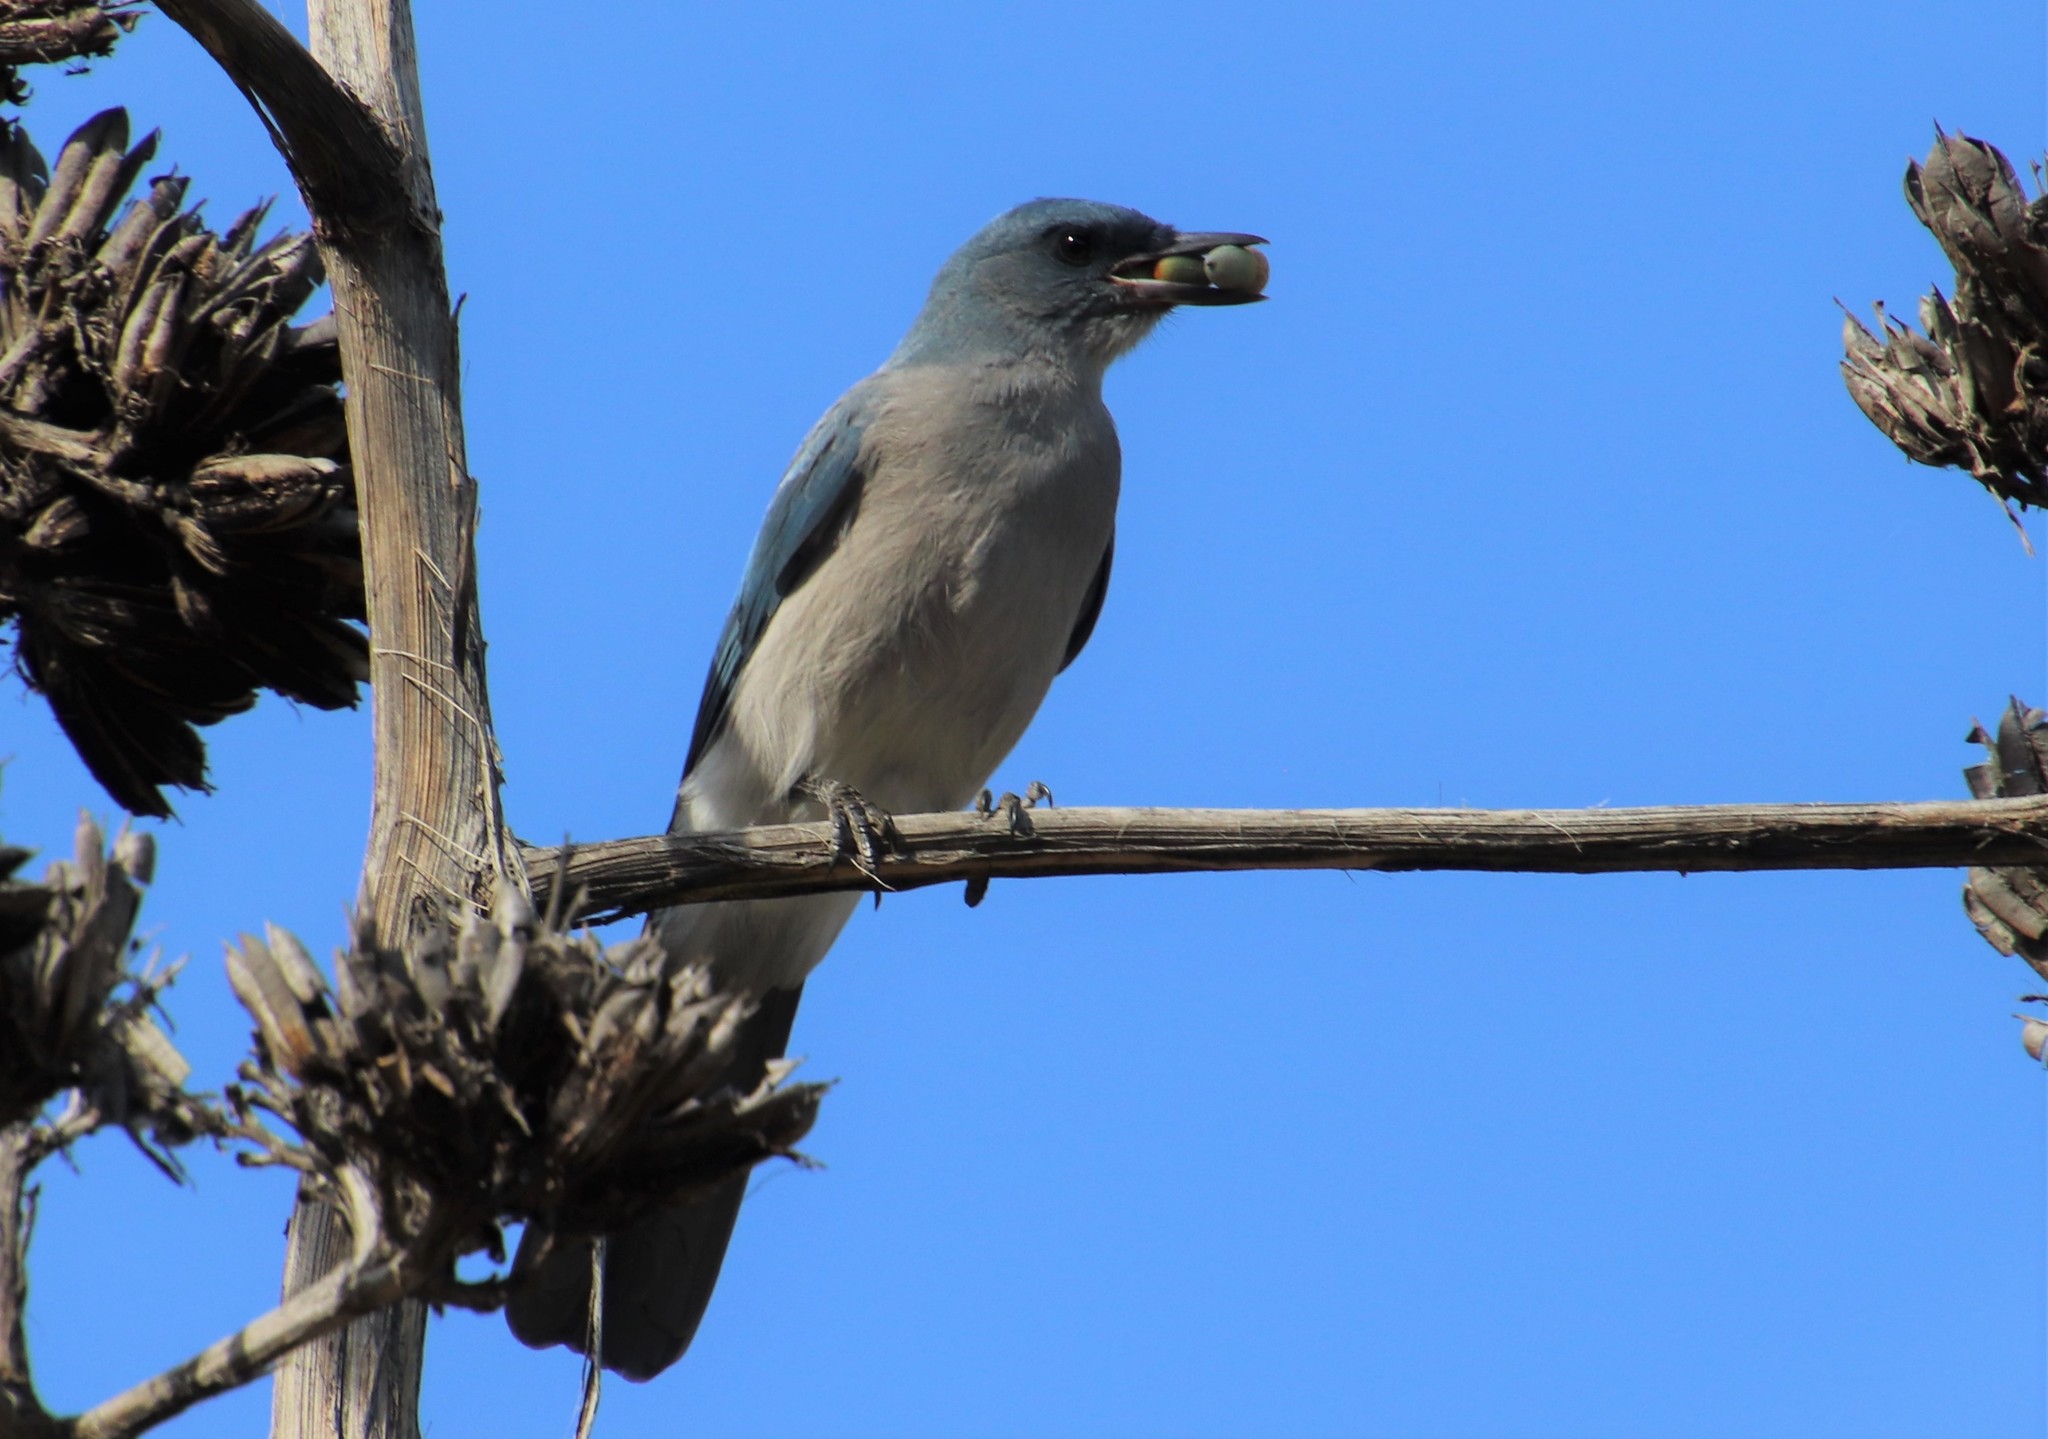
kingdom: Animalia
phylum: Chordata
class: Aves
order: Passeriformes
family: Corvidae
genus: Aphelocoma
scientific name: Aphelocoma wollweberi
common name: Mexican jay
